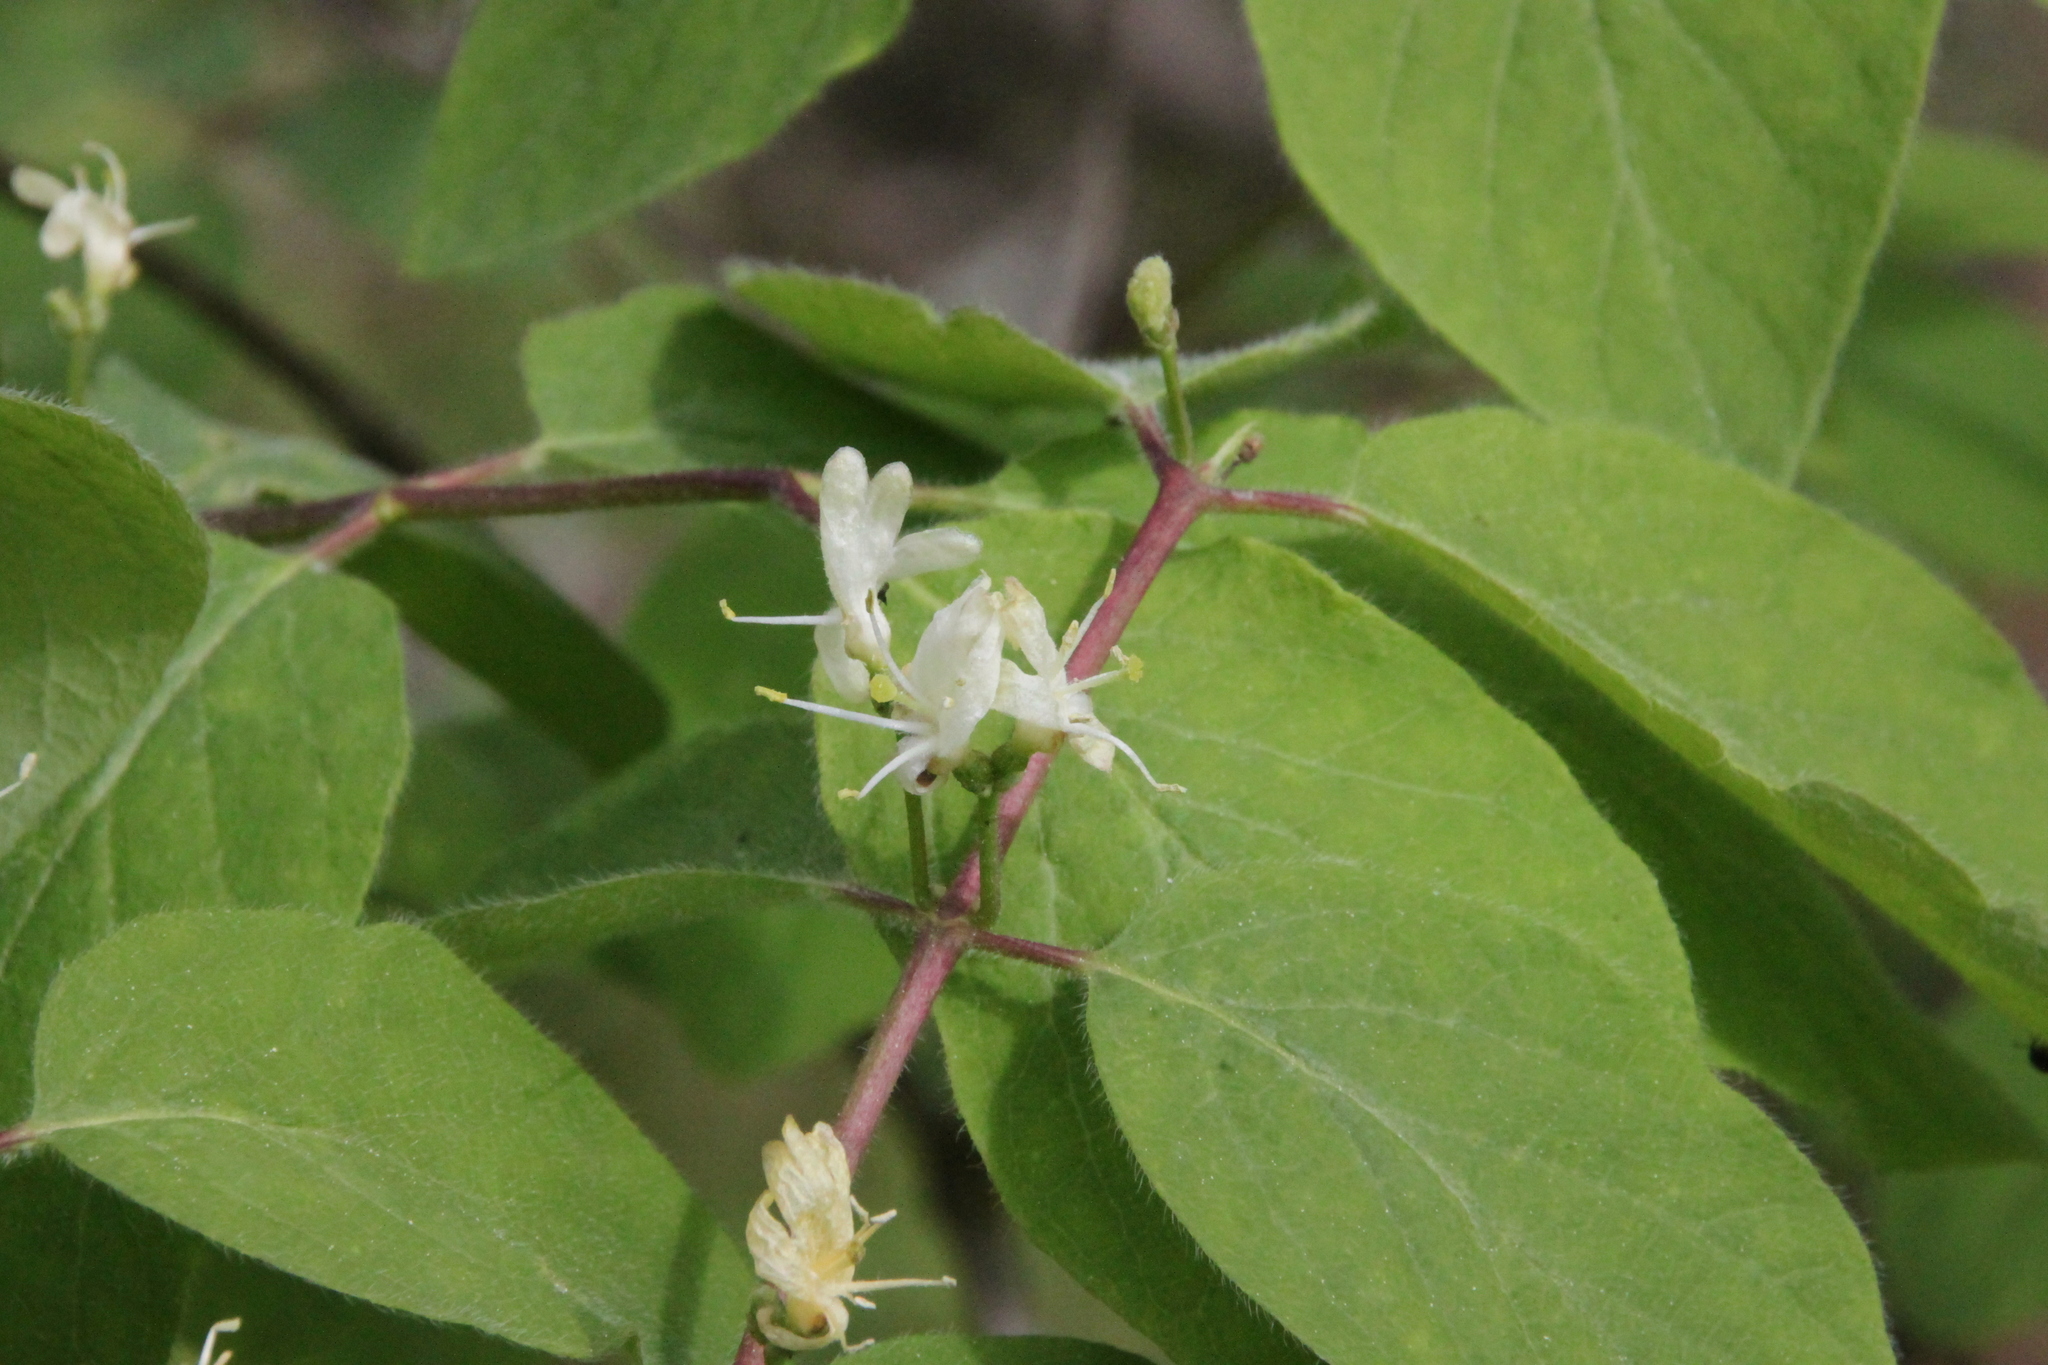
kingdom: Plantae
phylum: Tracheophyta
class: Magnoliopsida
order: Dipsacales
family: Caprifoliaceae
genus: Lonicera
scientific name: Lonicera xylosteum
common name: Fly honeysuckle
